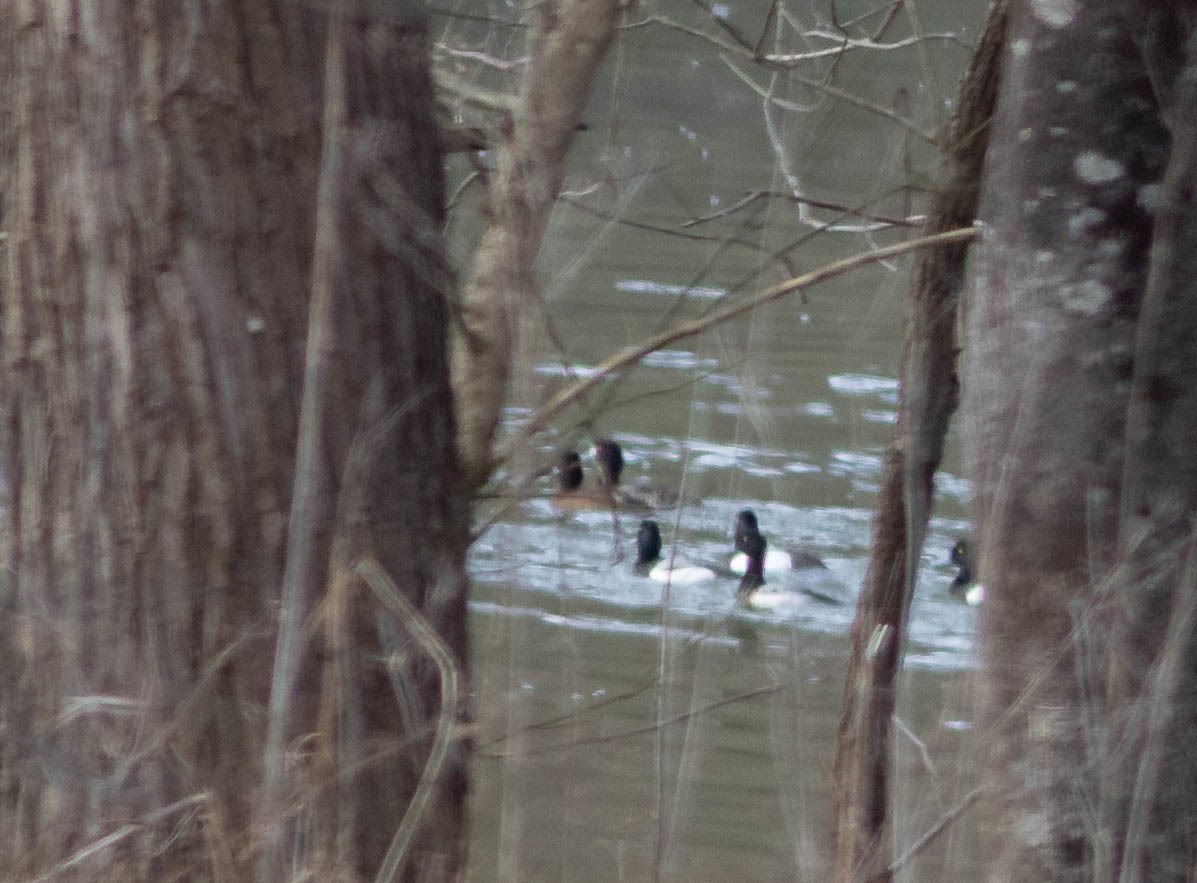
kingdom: Animalia
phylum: Chordata
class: Aves
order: Anseriformes
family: Anatidae
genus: Aythya
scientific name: Aythya marila
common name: Greater scaup
